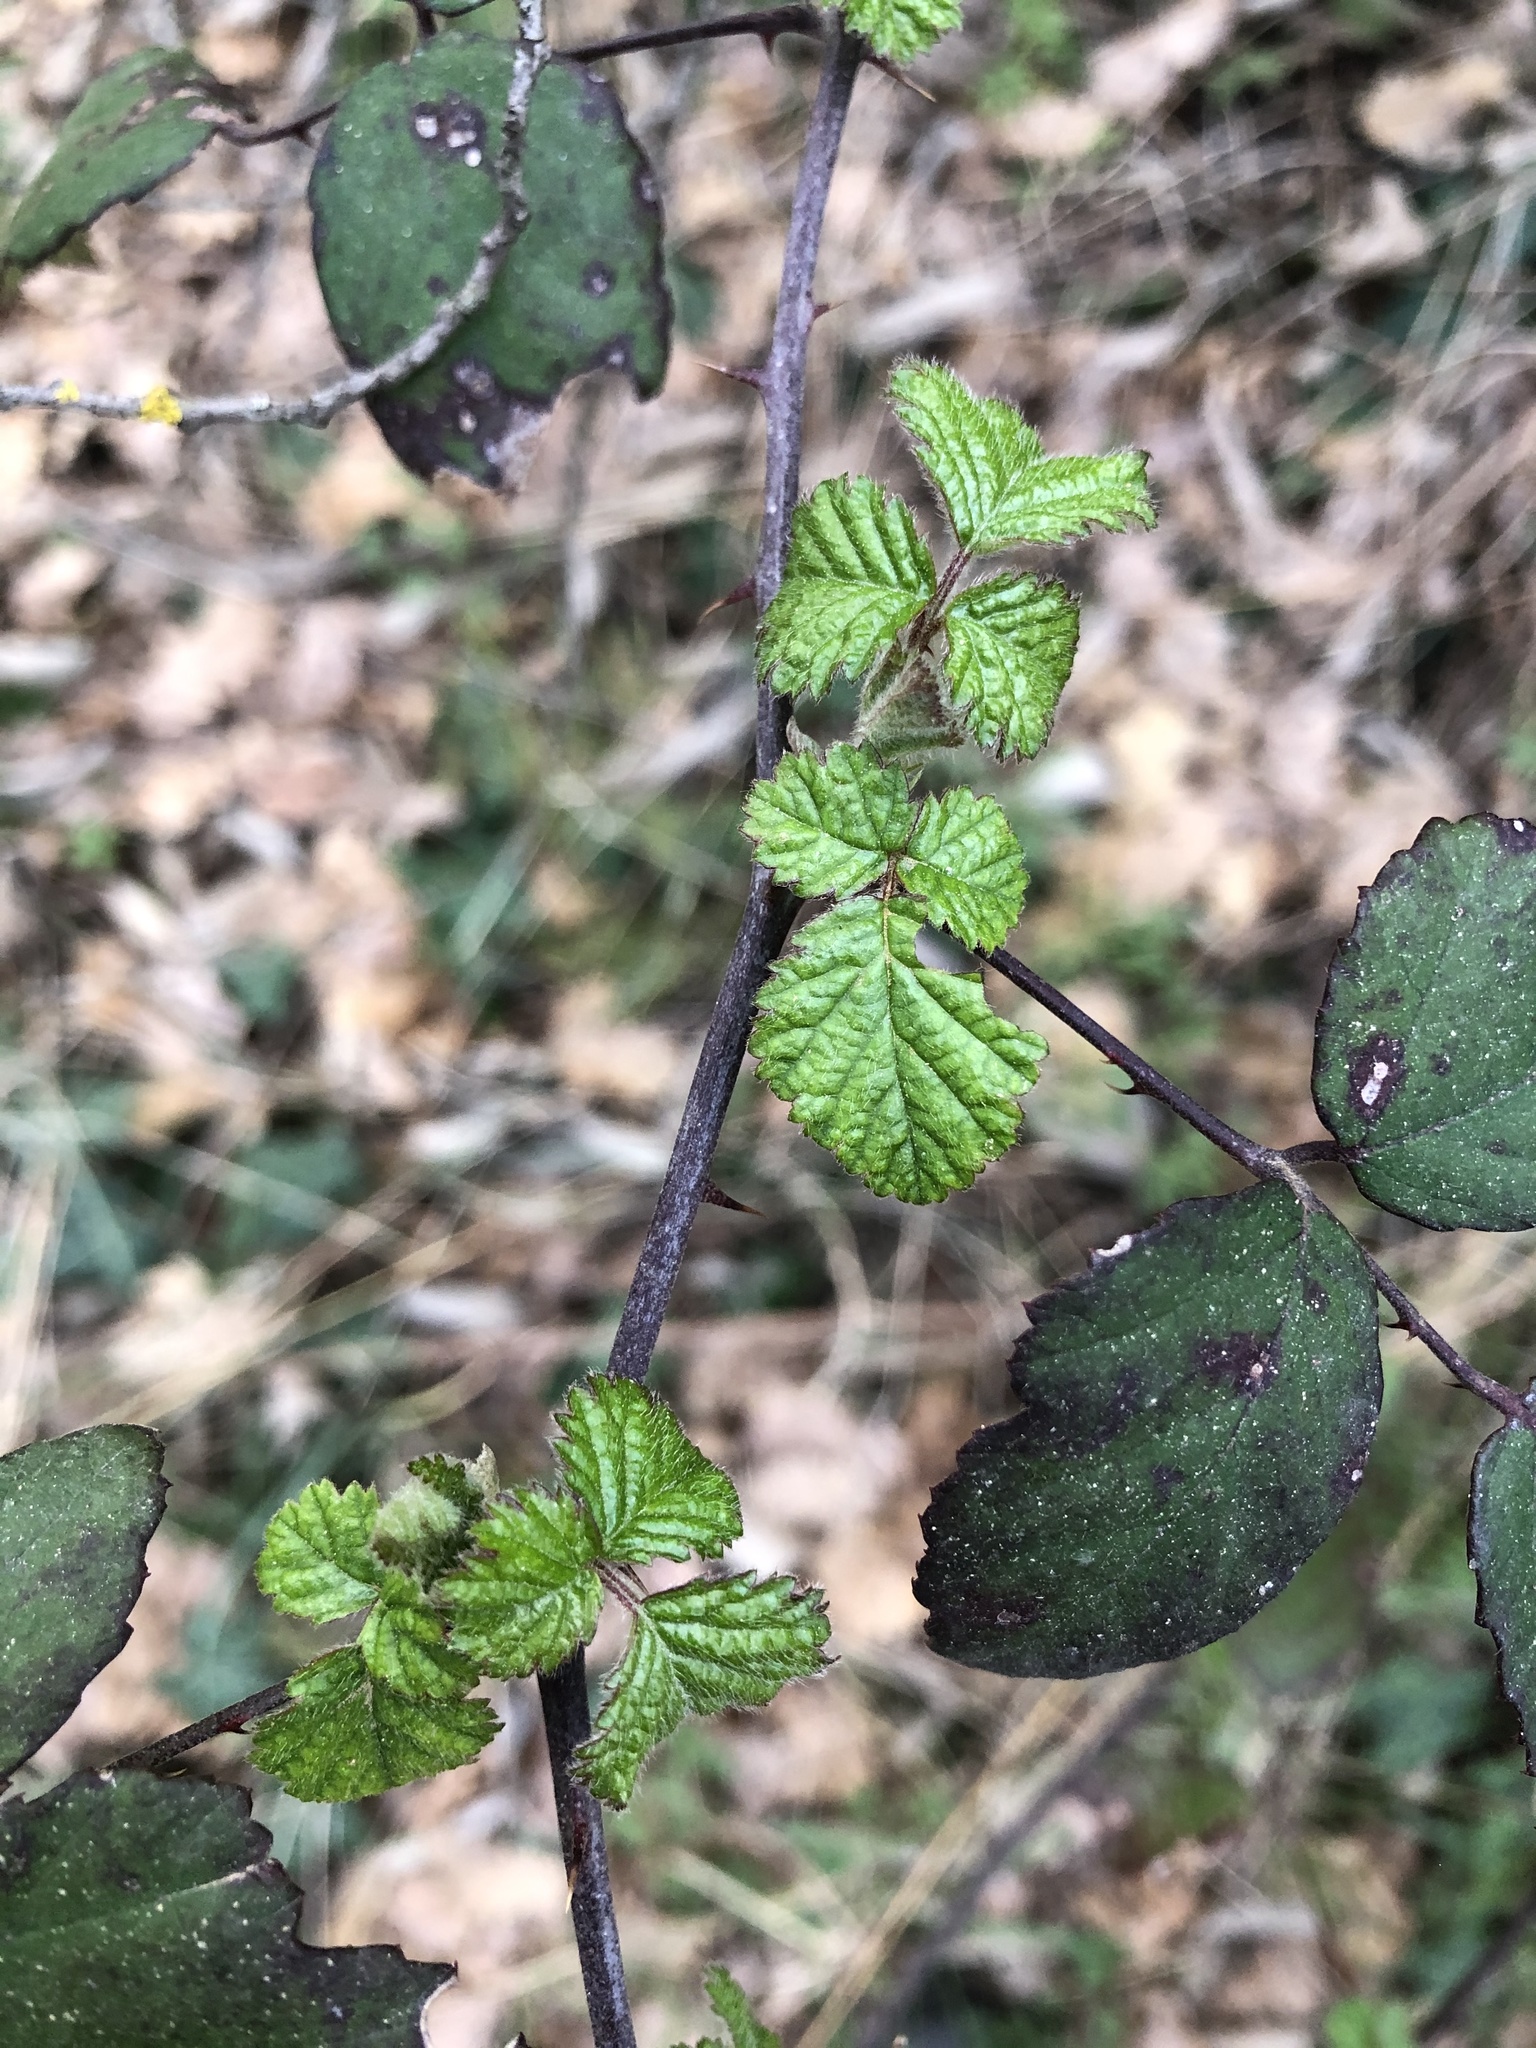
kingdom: Plantae
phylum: Tracheophyta
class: Magnoliopsida
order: Rosales
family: Rosaceae
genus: Rubus
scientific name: Rubus ulmifolius
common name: Elmleaf blackberry
